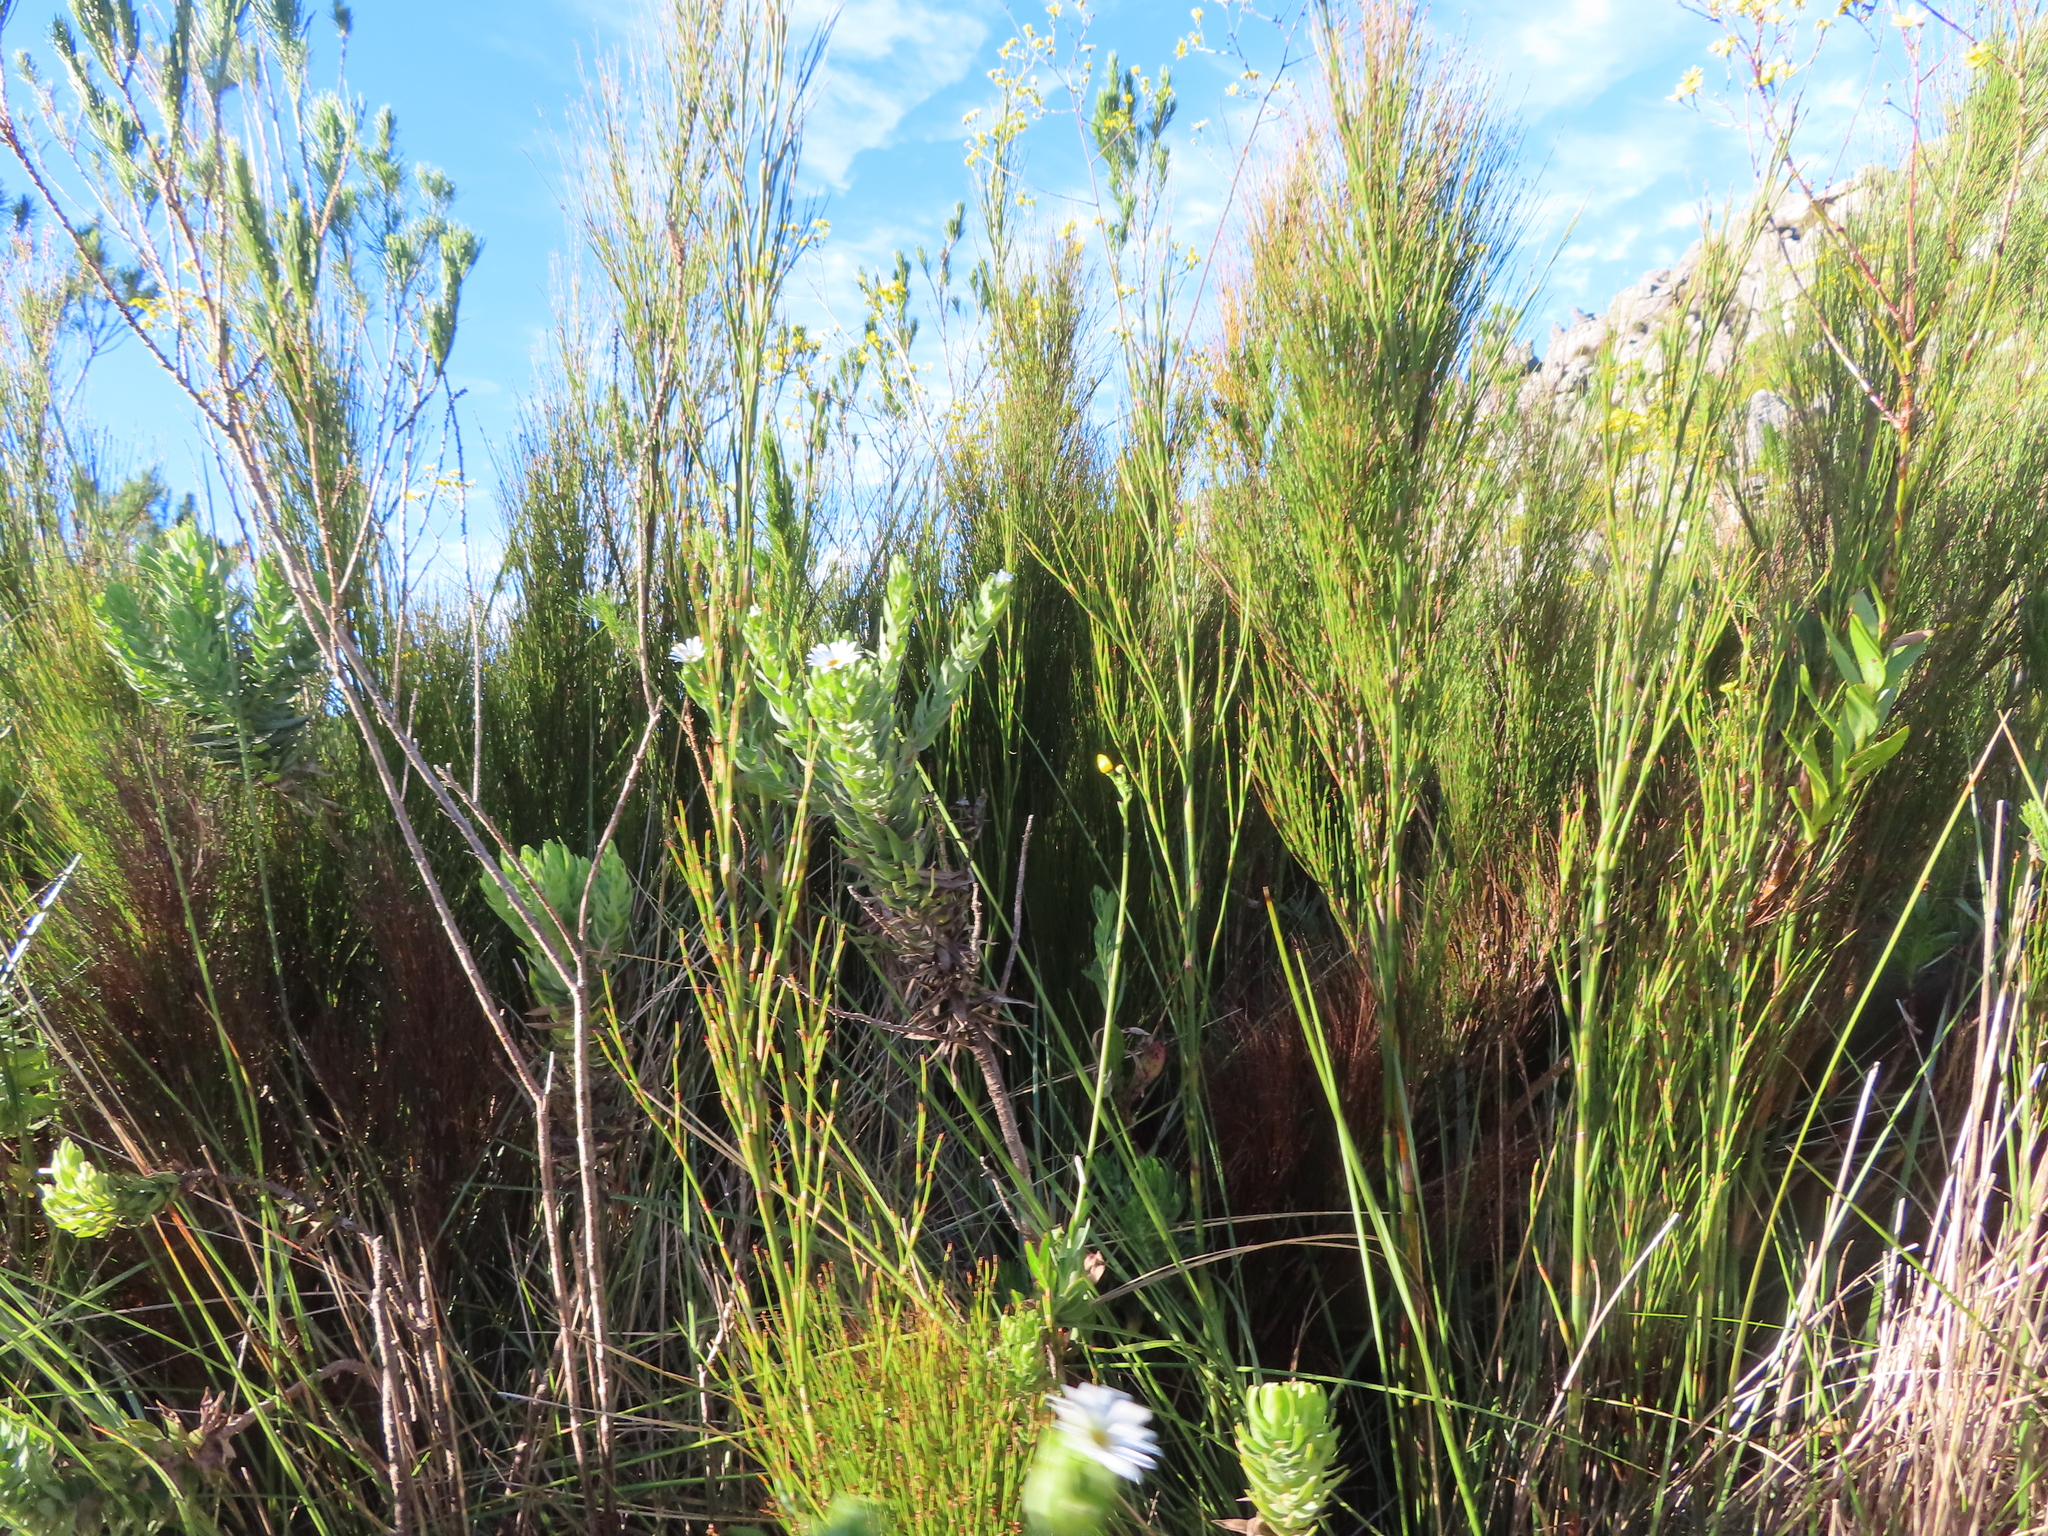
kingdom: Plantae
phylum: Tracheophyta
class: Magnoliopsida
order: Asterales
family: Asteraceae
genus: Osmitopsis
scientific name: Osmitopsis asteriscoides
